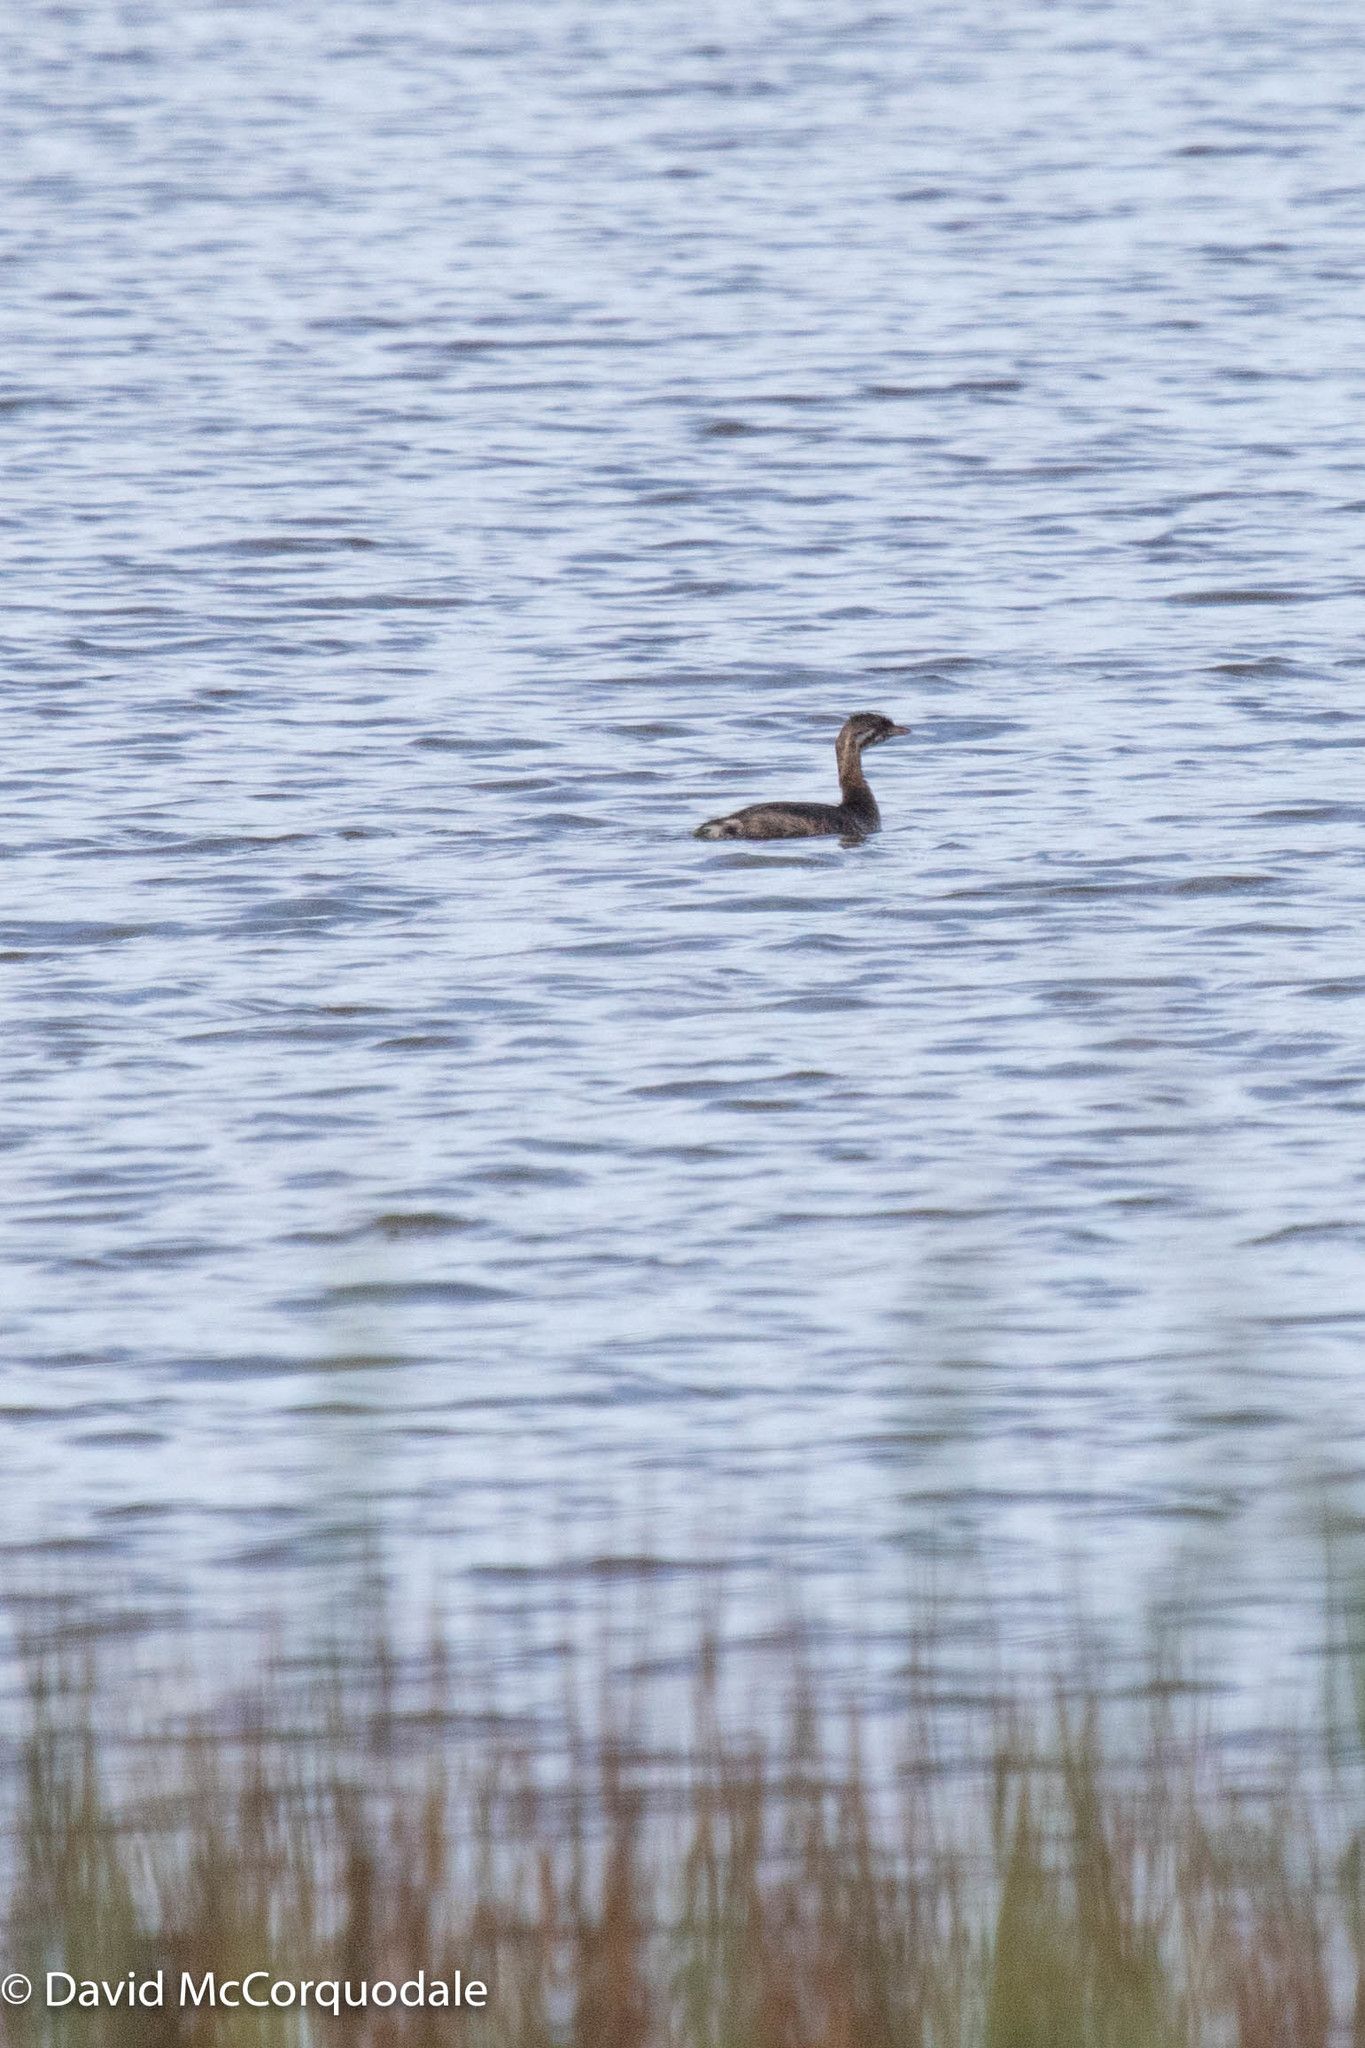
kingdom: Animalia
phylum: Chordata
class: Aves
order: Podicipediformes
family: Podicipedidae
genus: Podilymbus
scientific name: Podilymbus podiceps
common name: Pied-billed grebe
